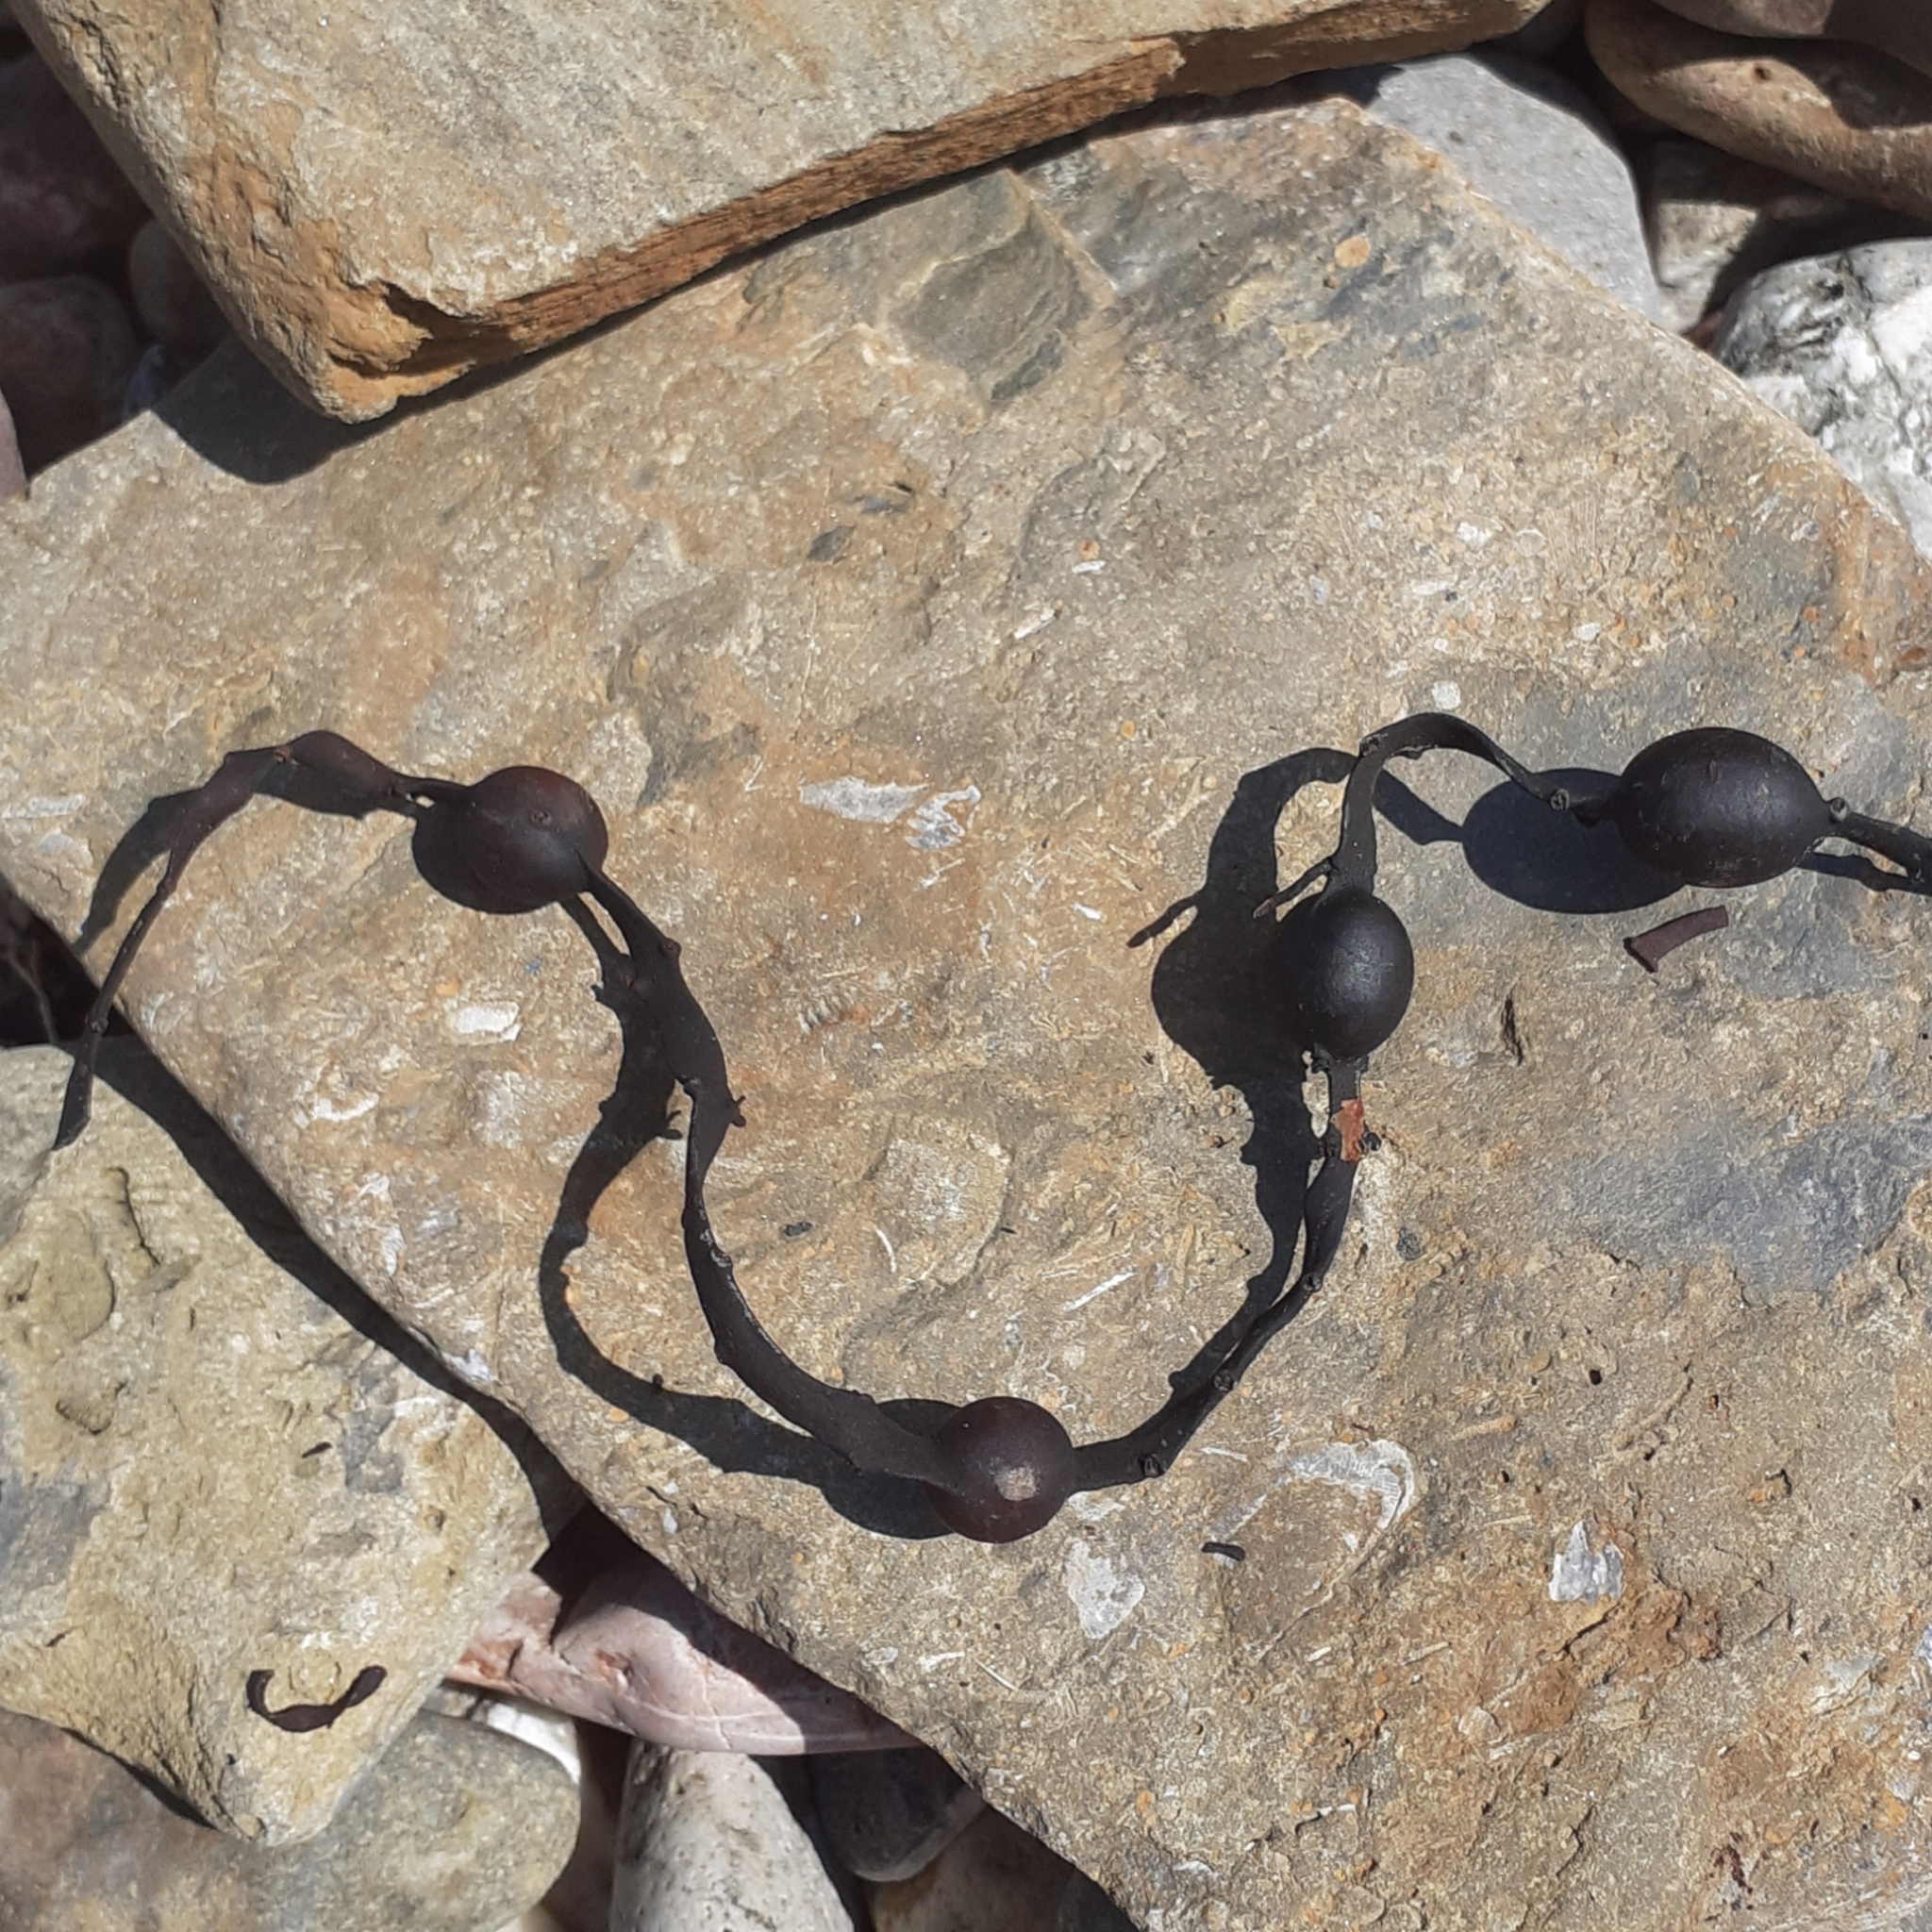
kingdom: Chromista
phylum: Ochrophyta
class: Phaeophyceae
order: Fucales
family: Fucaceae
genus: Ascophyllum
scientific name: Ascophyllum nodosum
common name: Knotted wrack
